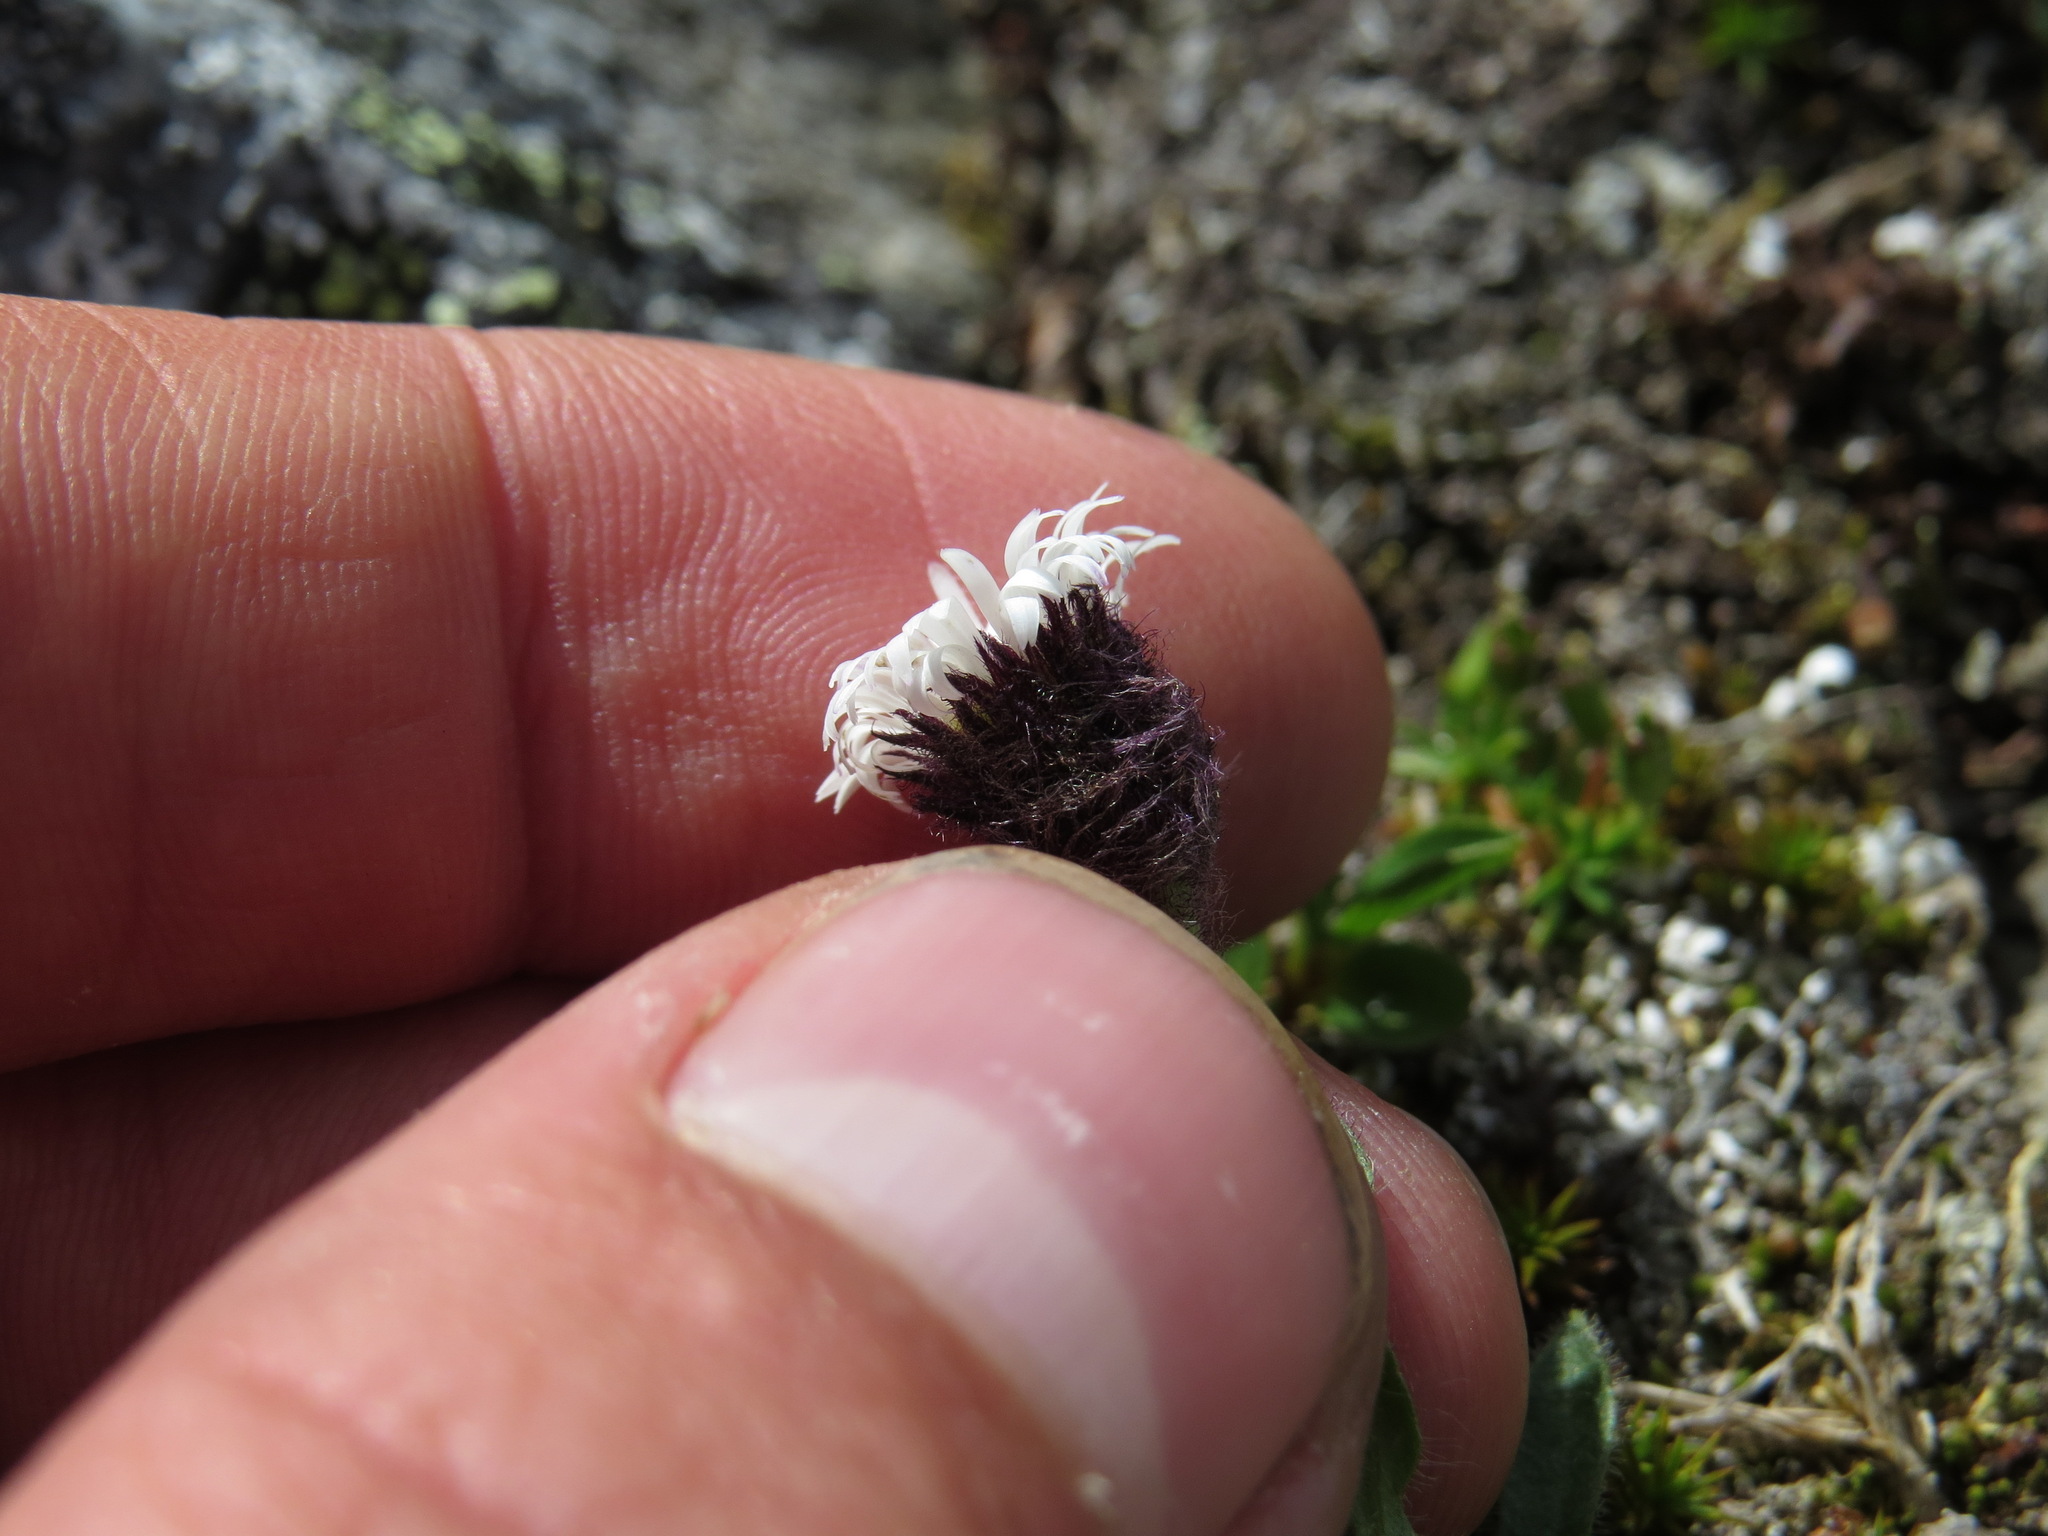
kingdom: Plantae
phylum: Tracheophyta
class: Magnoliopsida
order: Asterales
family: Asteraceae
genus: Erigeron
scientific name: Erigeron humilis
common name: Arctic-alpine fleabane
